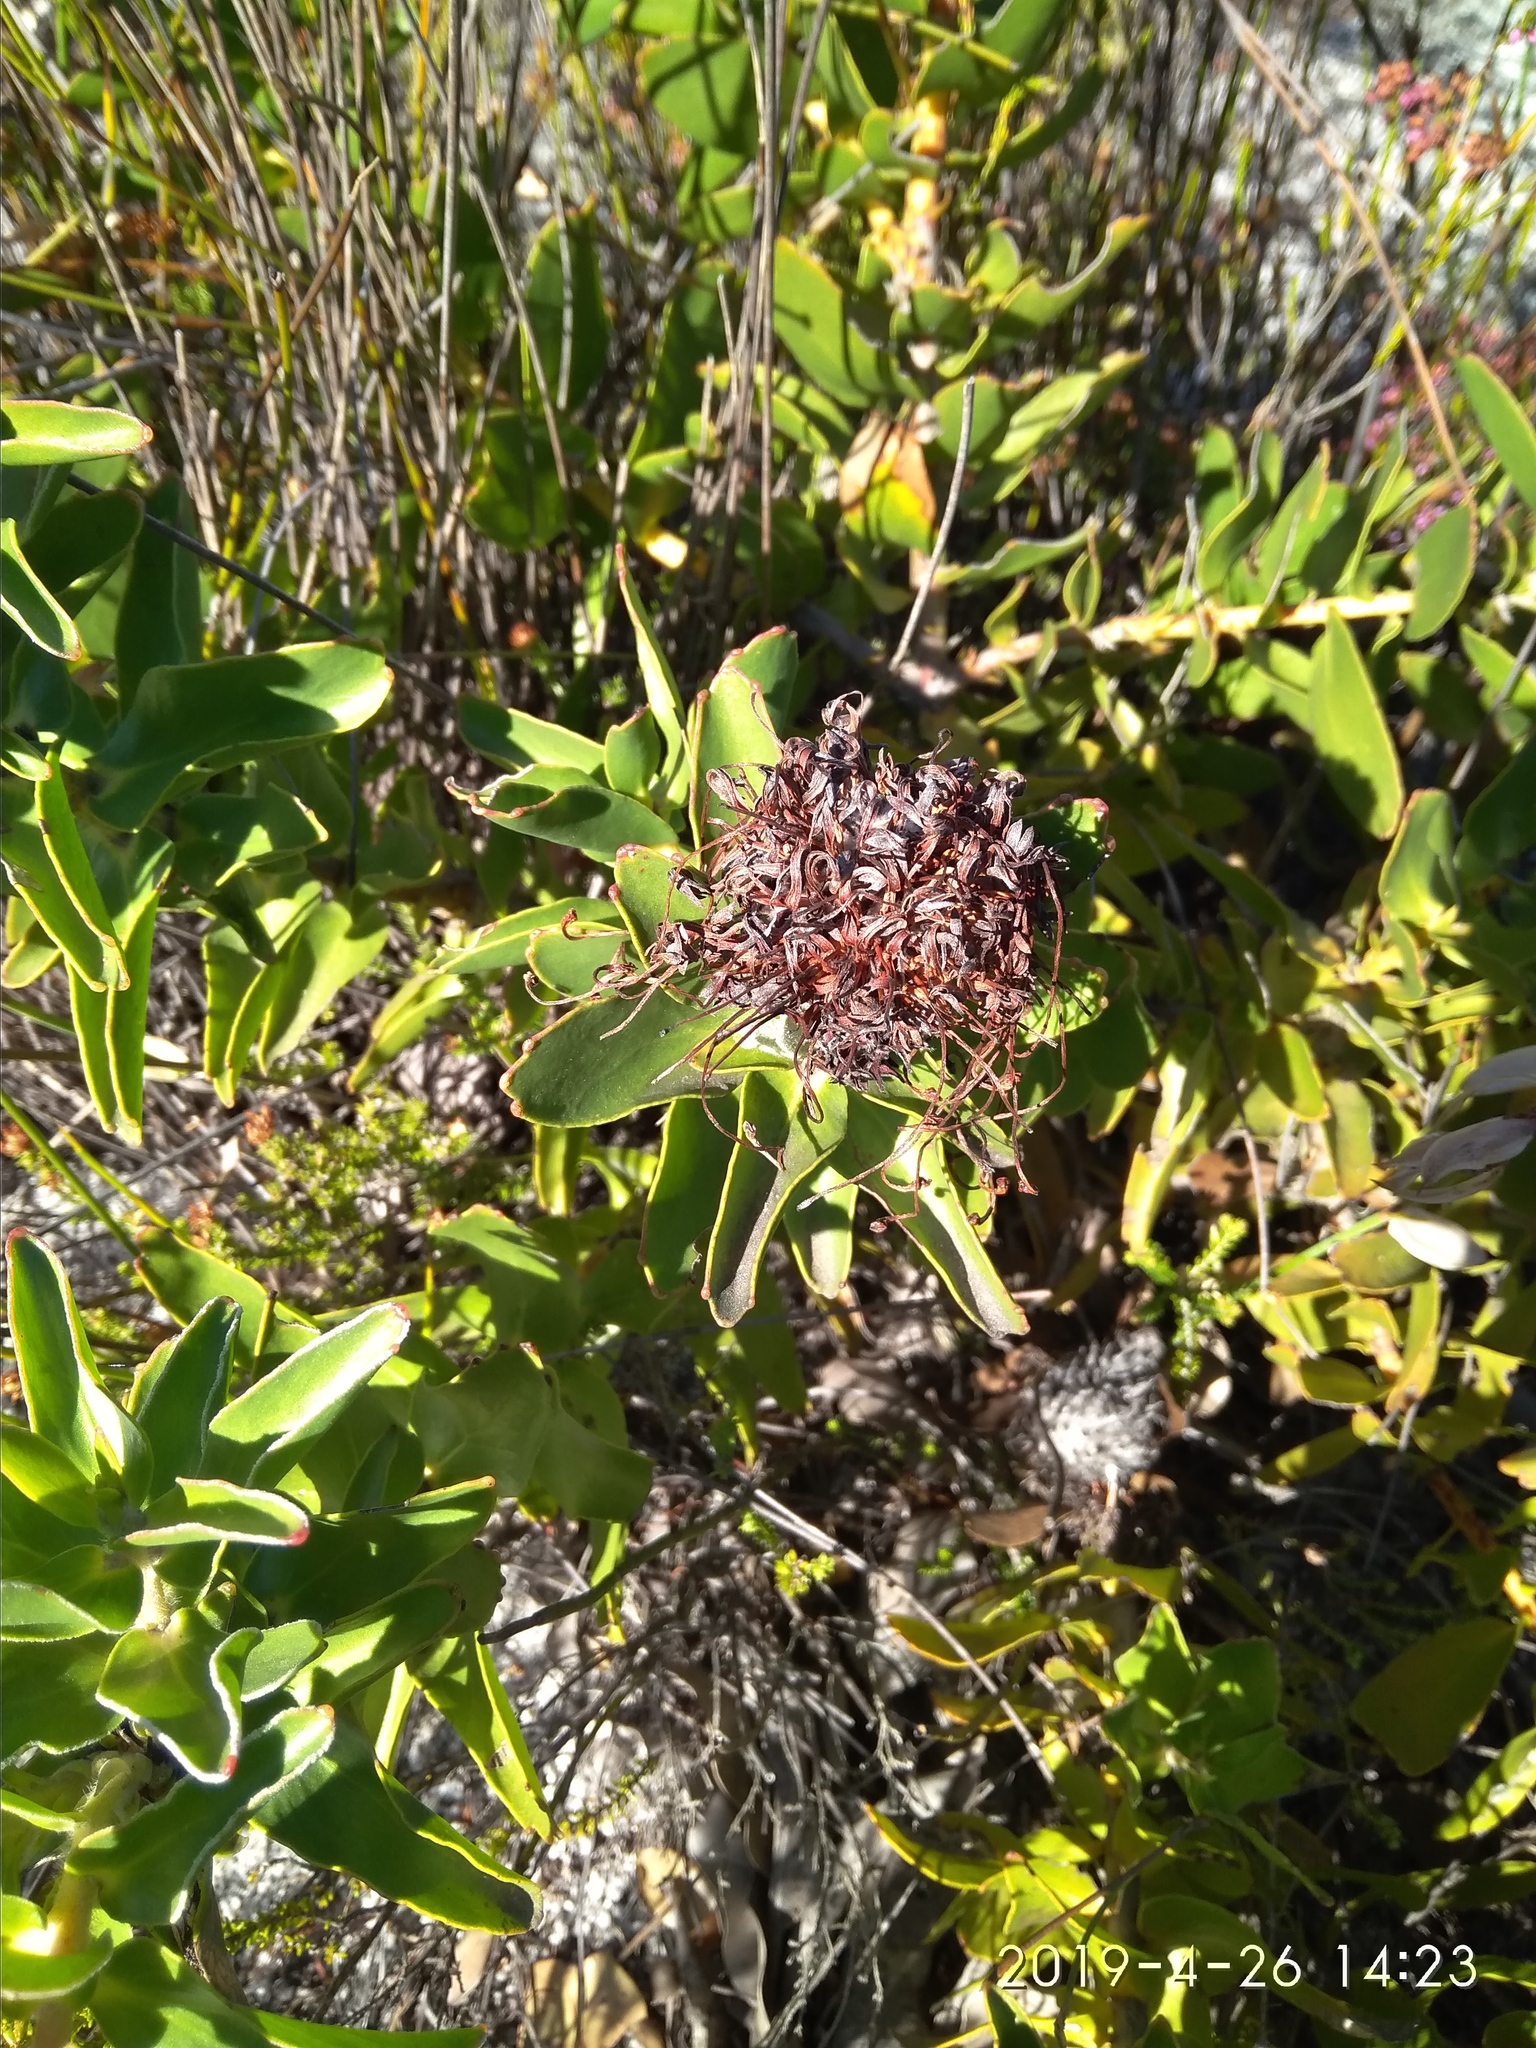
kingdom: Plantae
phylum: Tracheophyta
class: Magnoliopsida
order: Proteales
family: Proteaceae
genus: Leucospermum
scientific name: Leucospermum cordifolium
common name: Red pincushion-protea
